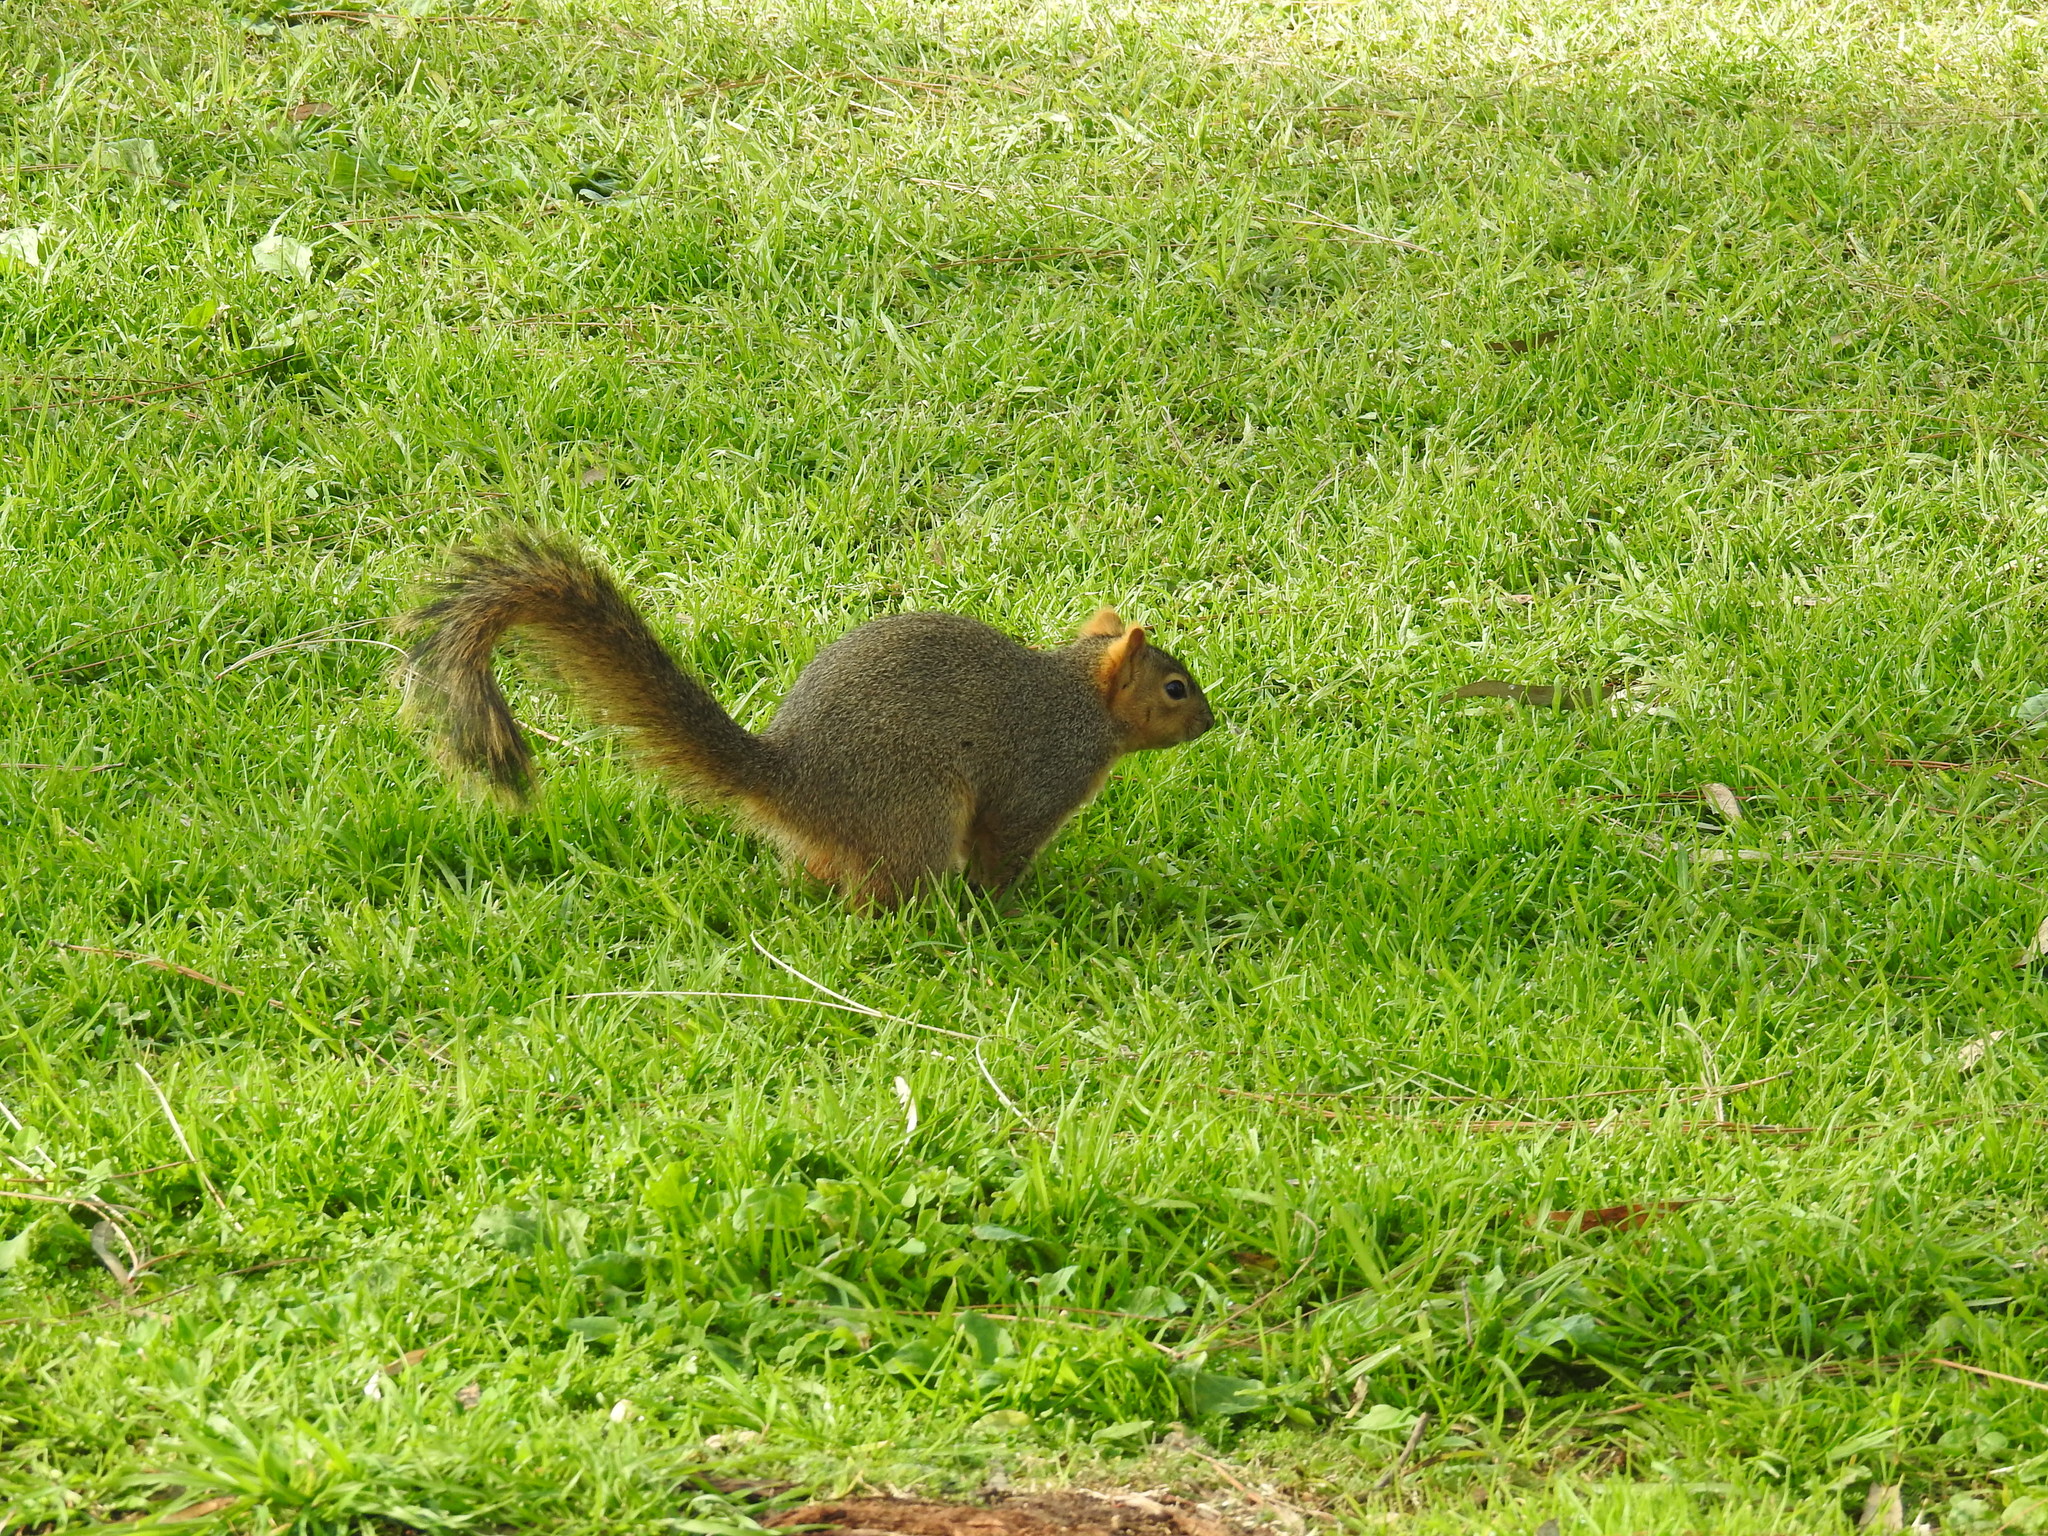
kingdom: Animalia
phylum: Chordata
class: Mammalia
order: Rodentia
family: Sciuridae
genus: Sciurus
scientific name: Sciurus niger
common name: Fox squirrel
